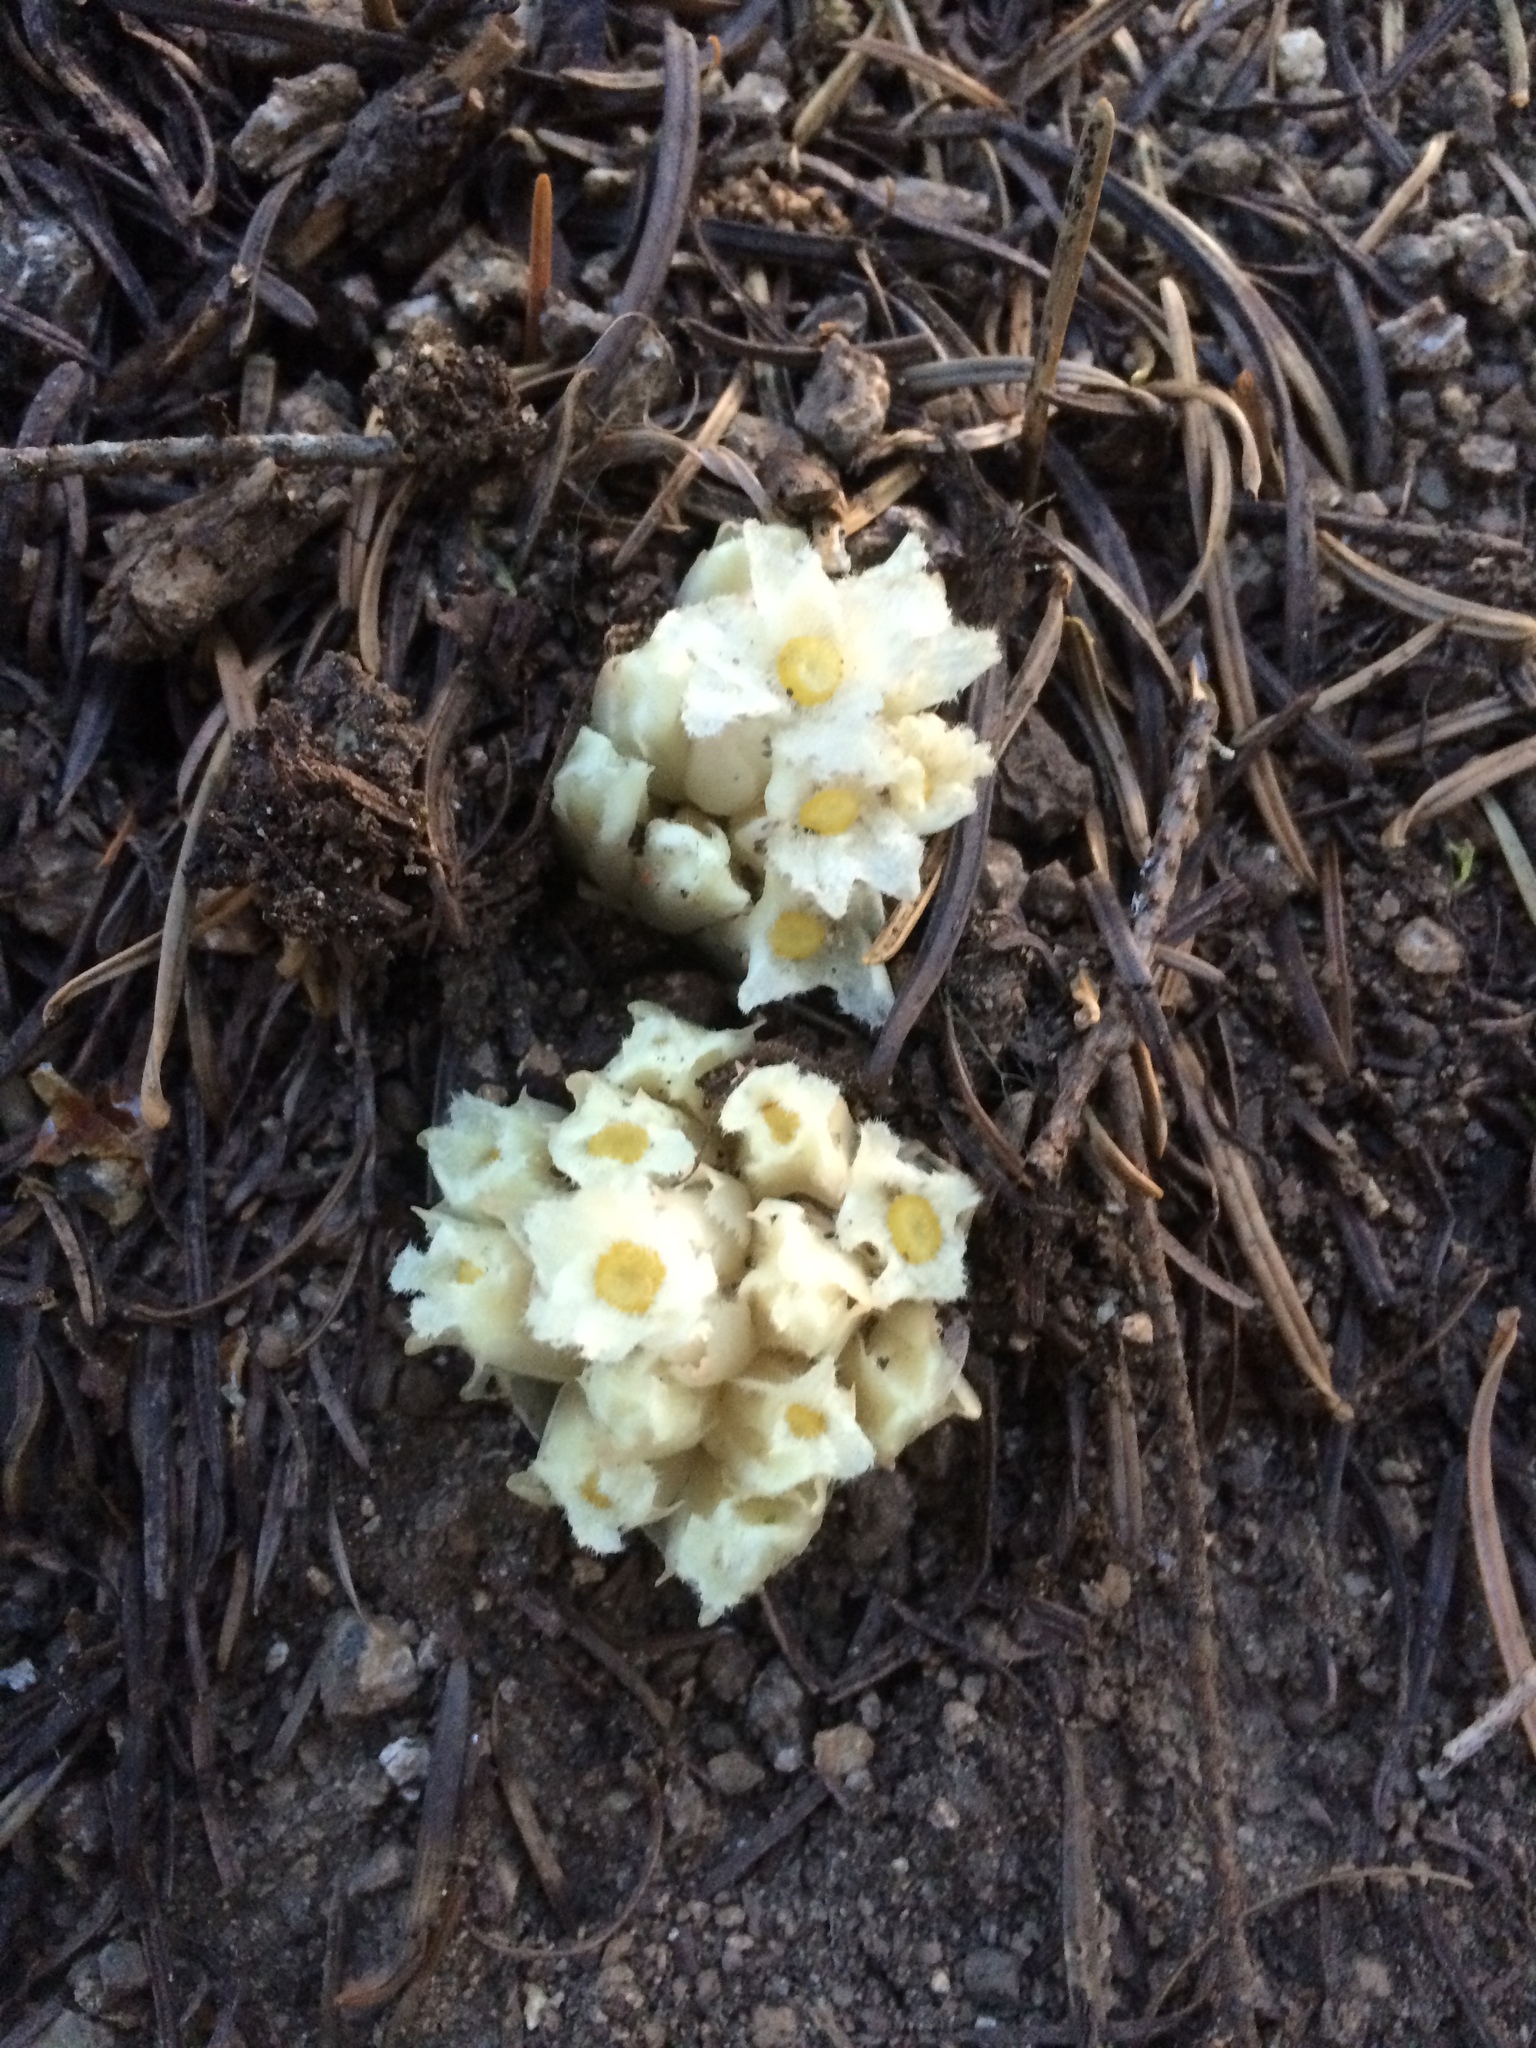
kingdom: Plantae
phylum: Tracheophyta
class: Magnoliopsida
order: Ericales
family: Ericaceae
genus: Hemitomes
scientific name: Hemitomes congestum
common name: Cone plant
